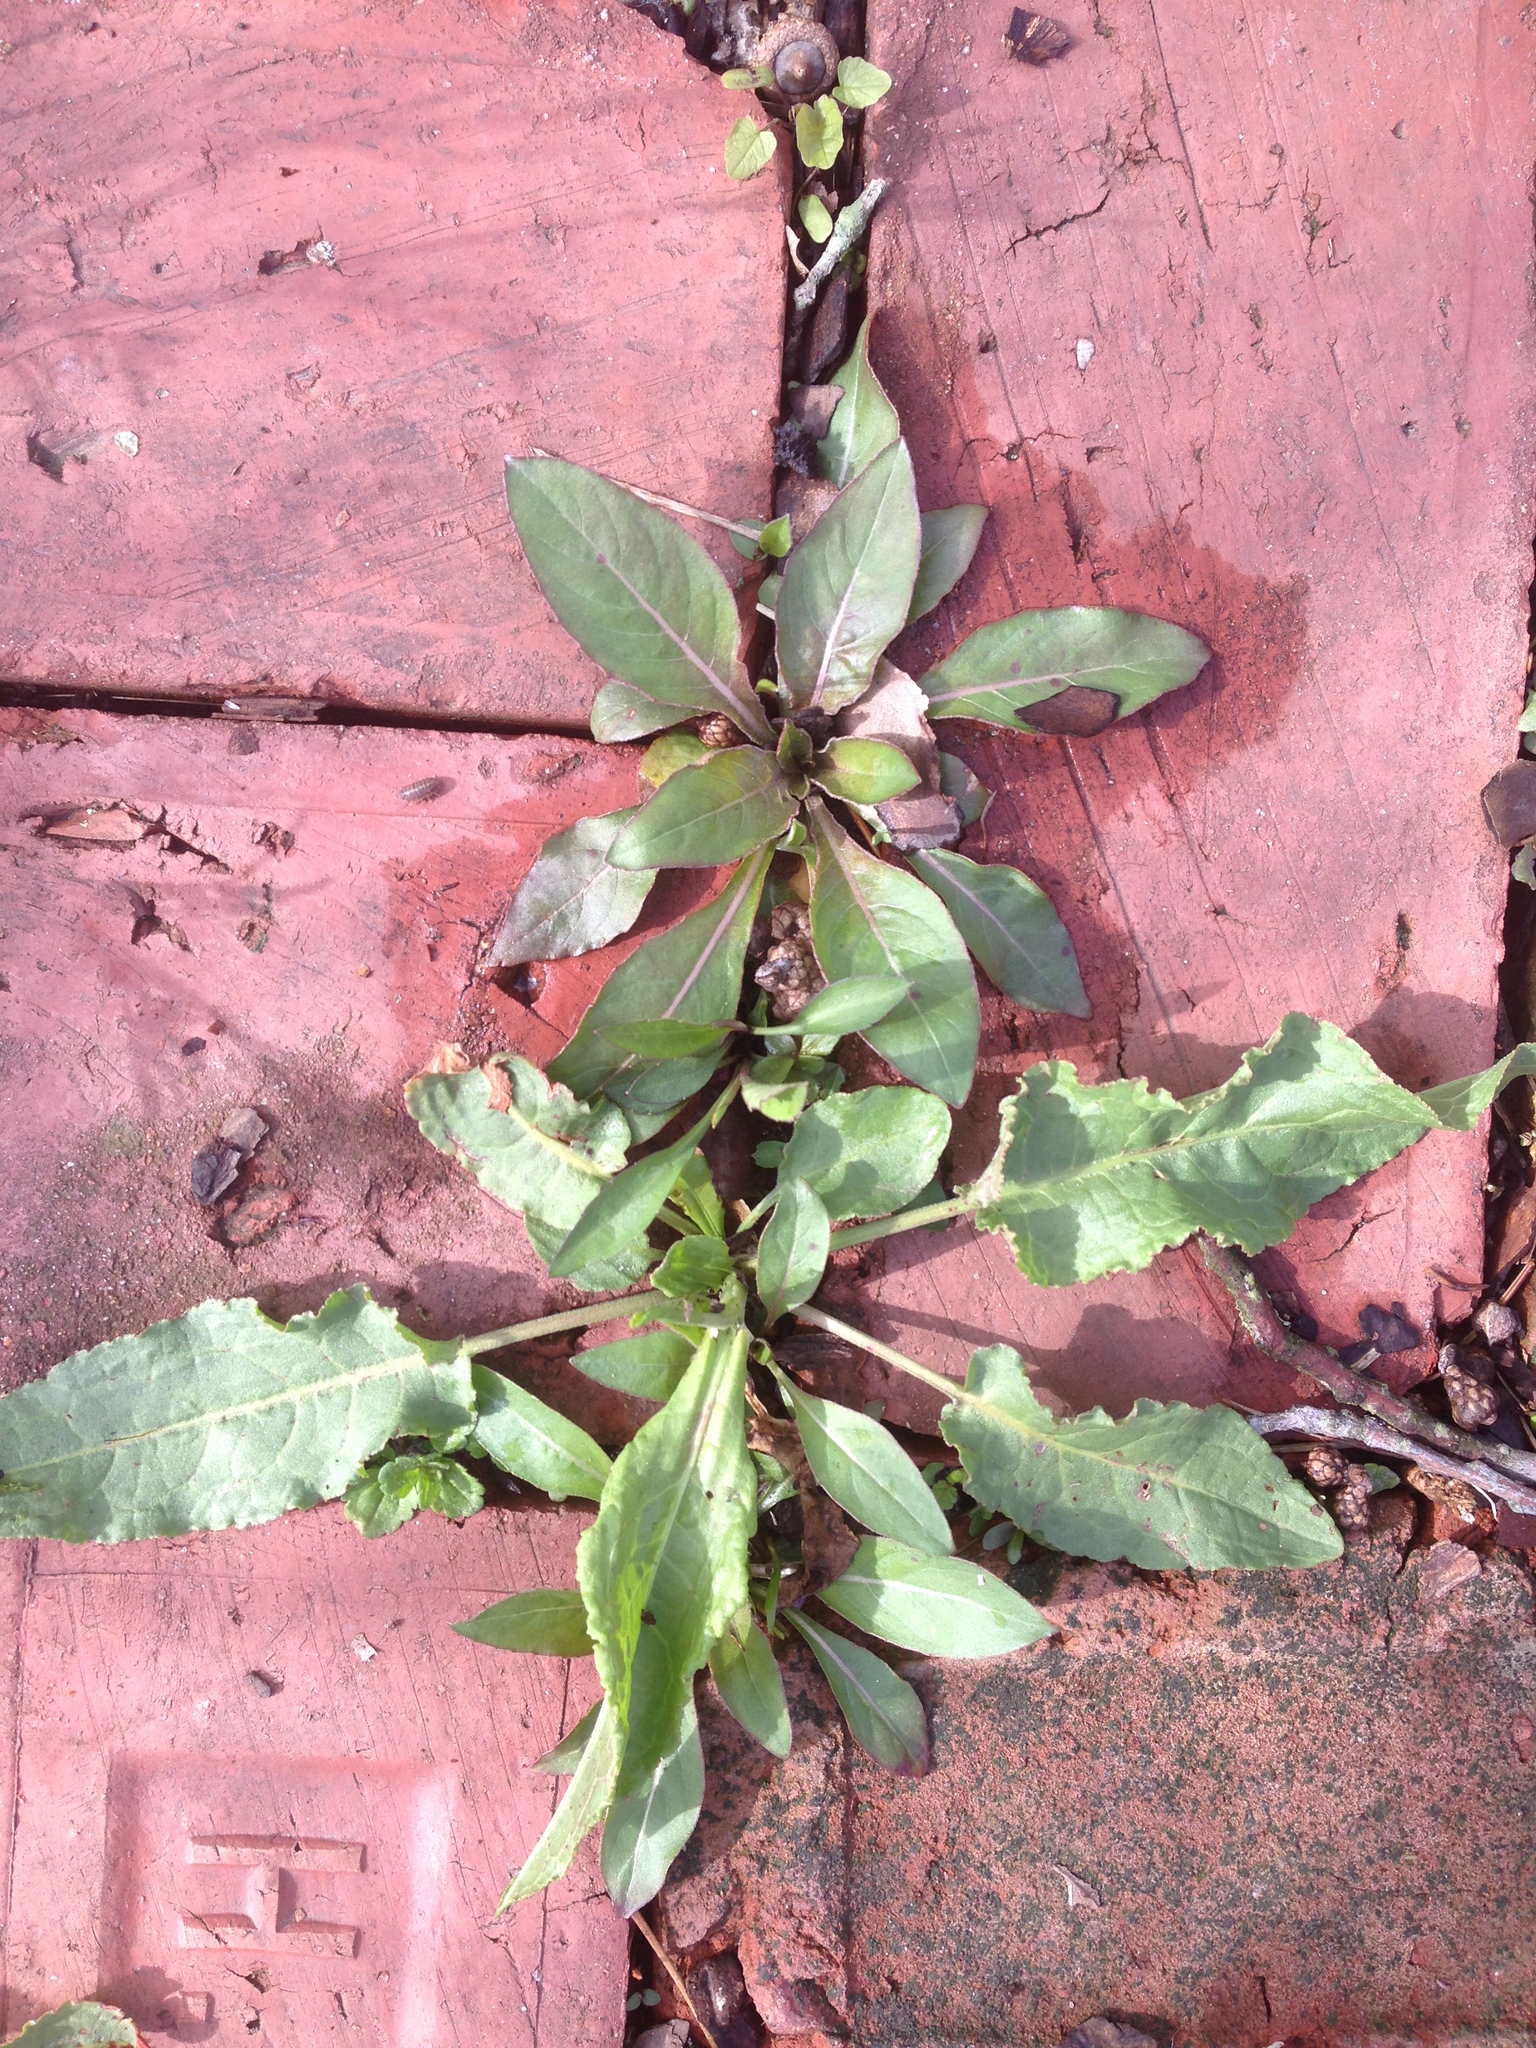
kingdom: Plantae
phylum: Tracheophyta
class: Magnoliopsida
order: Myrtales
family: Onagraceae
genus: Oenothera
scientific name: Oenothera biennis
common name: Common evening-primrose
